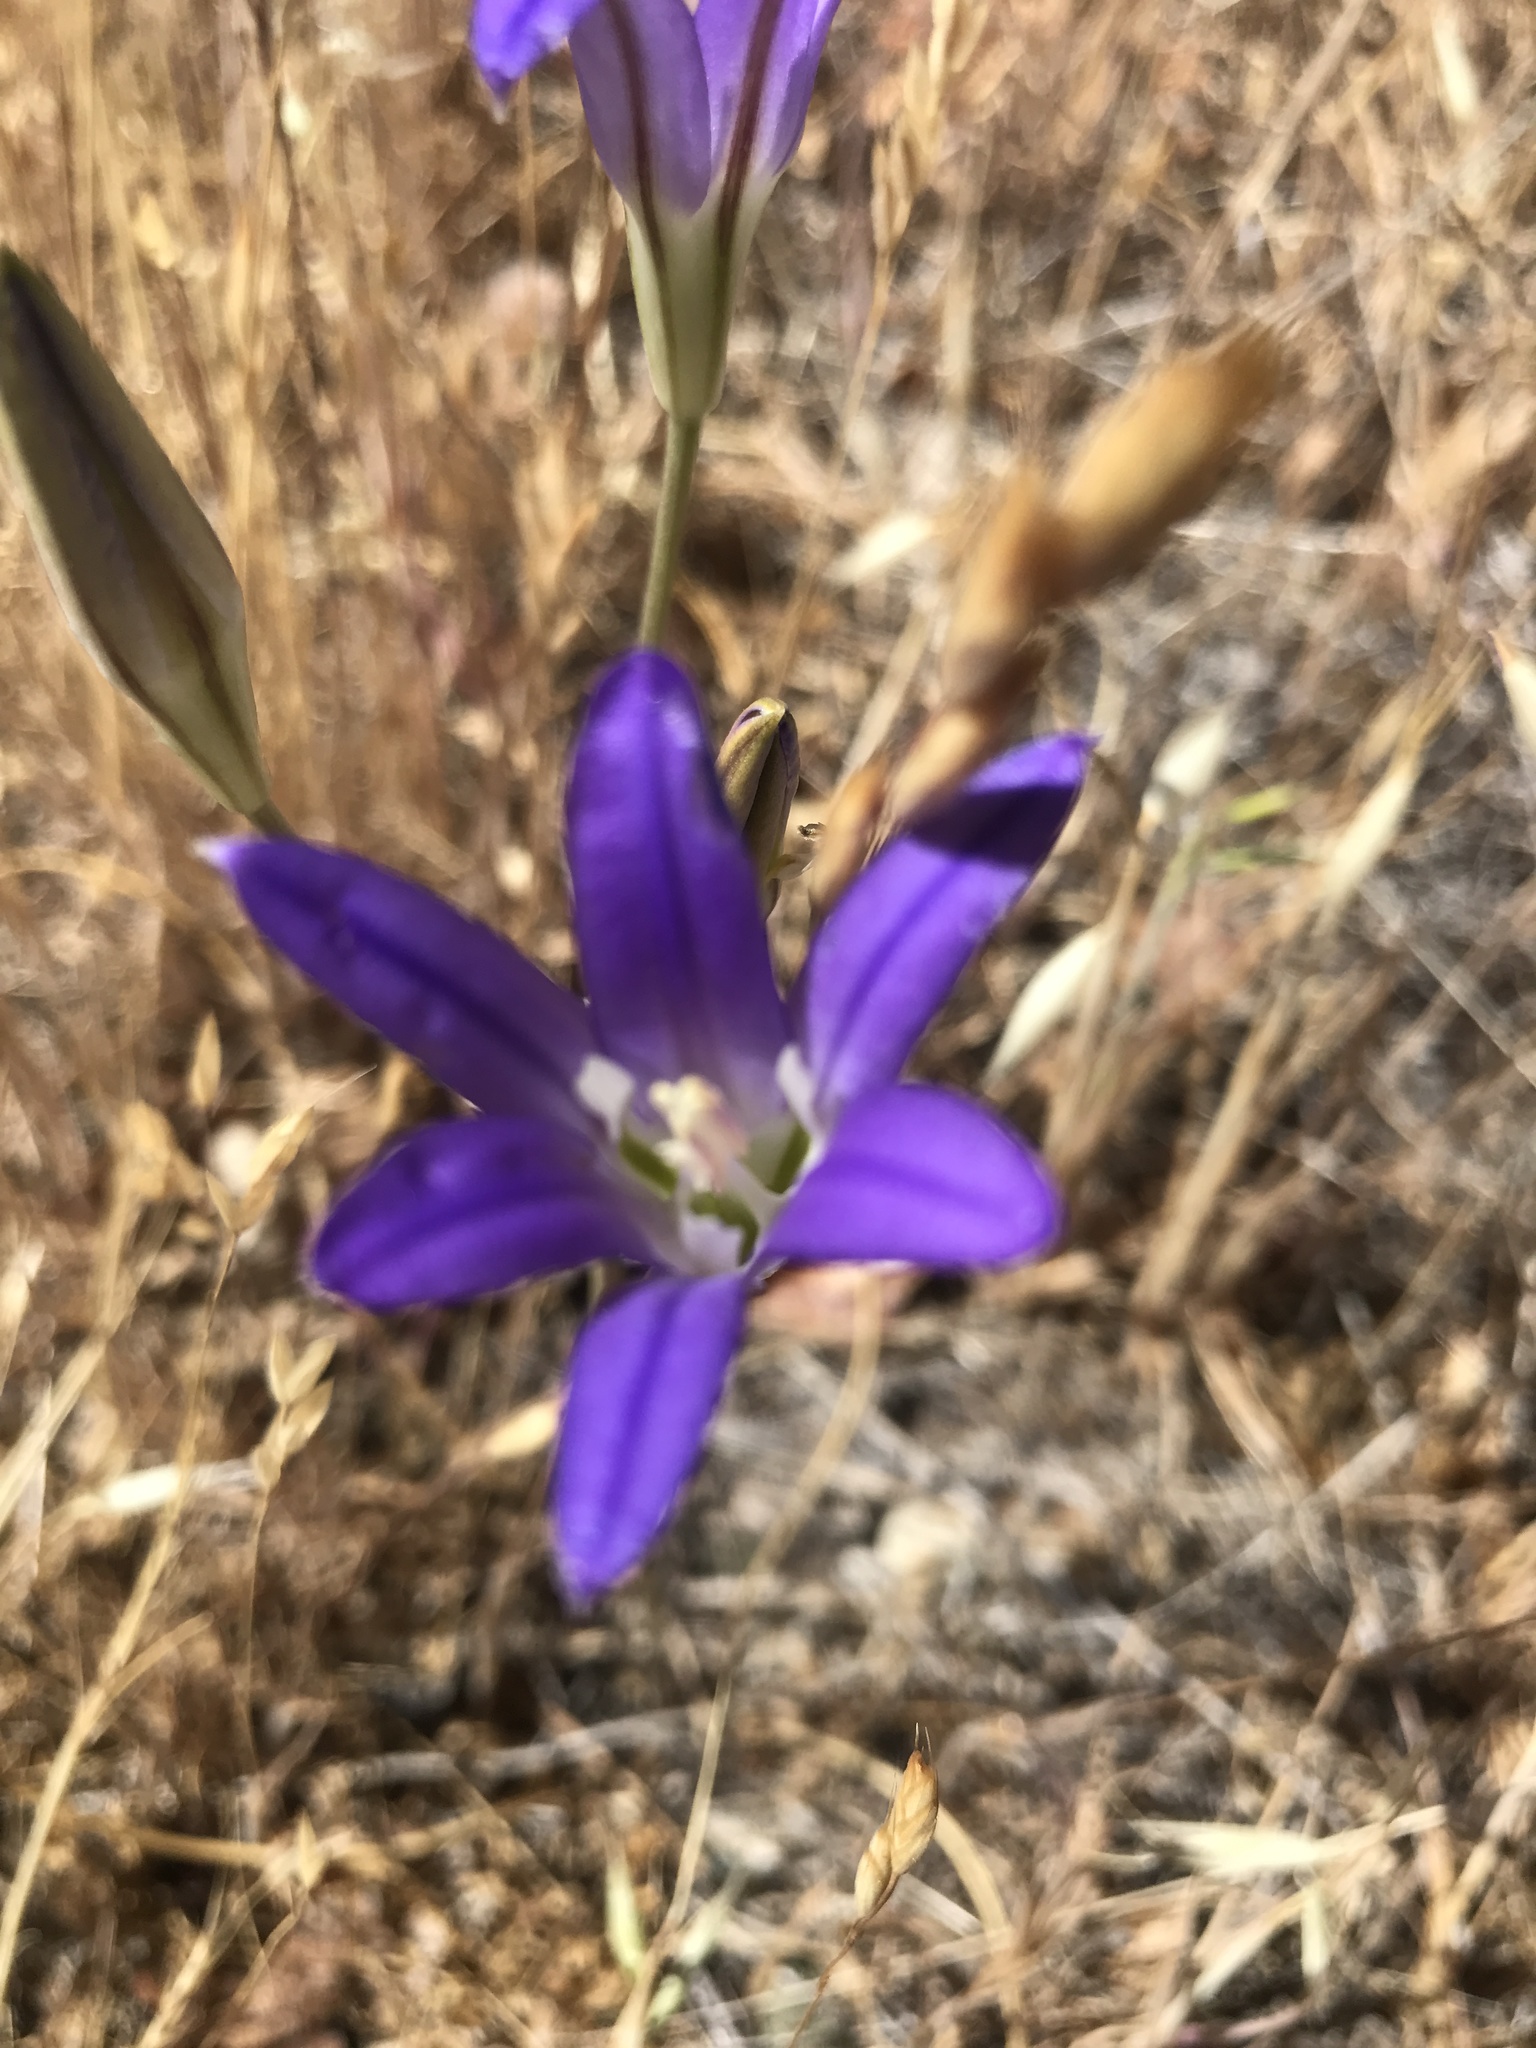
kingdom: Plantae
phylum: Tracheophyta
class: Liliopsida
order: Asparagales
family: Asparagaceae
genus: Brodiaea
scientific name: Brodiaea elegans
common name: Elegant cluster-lily
